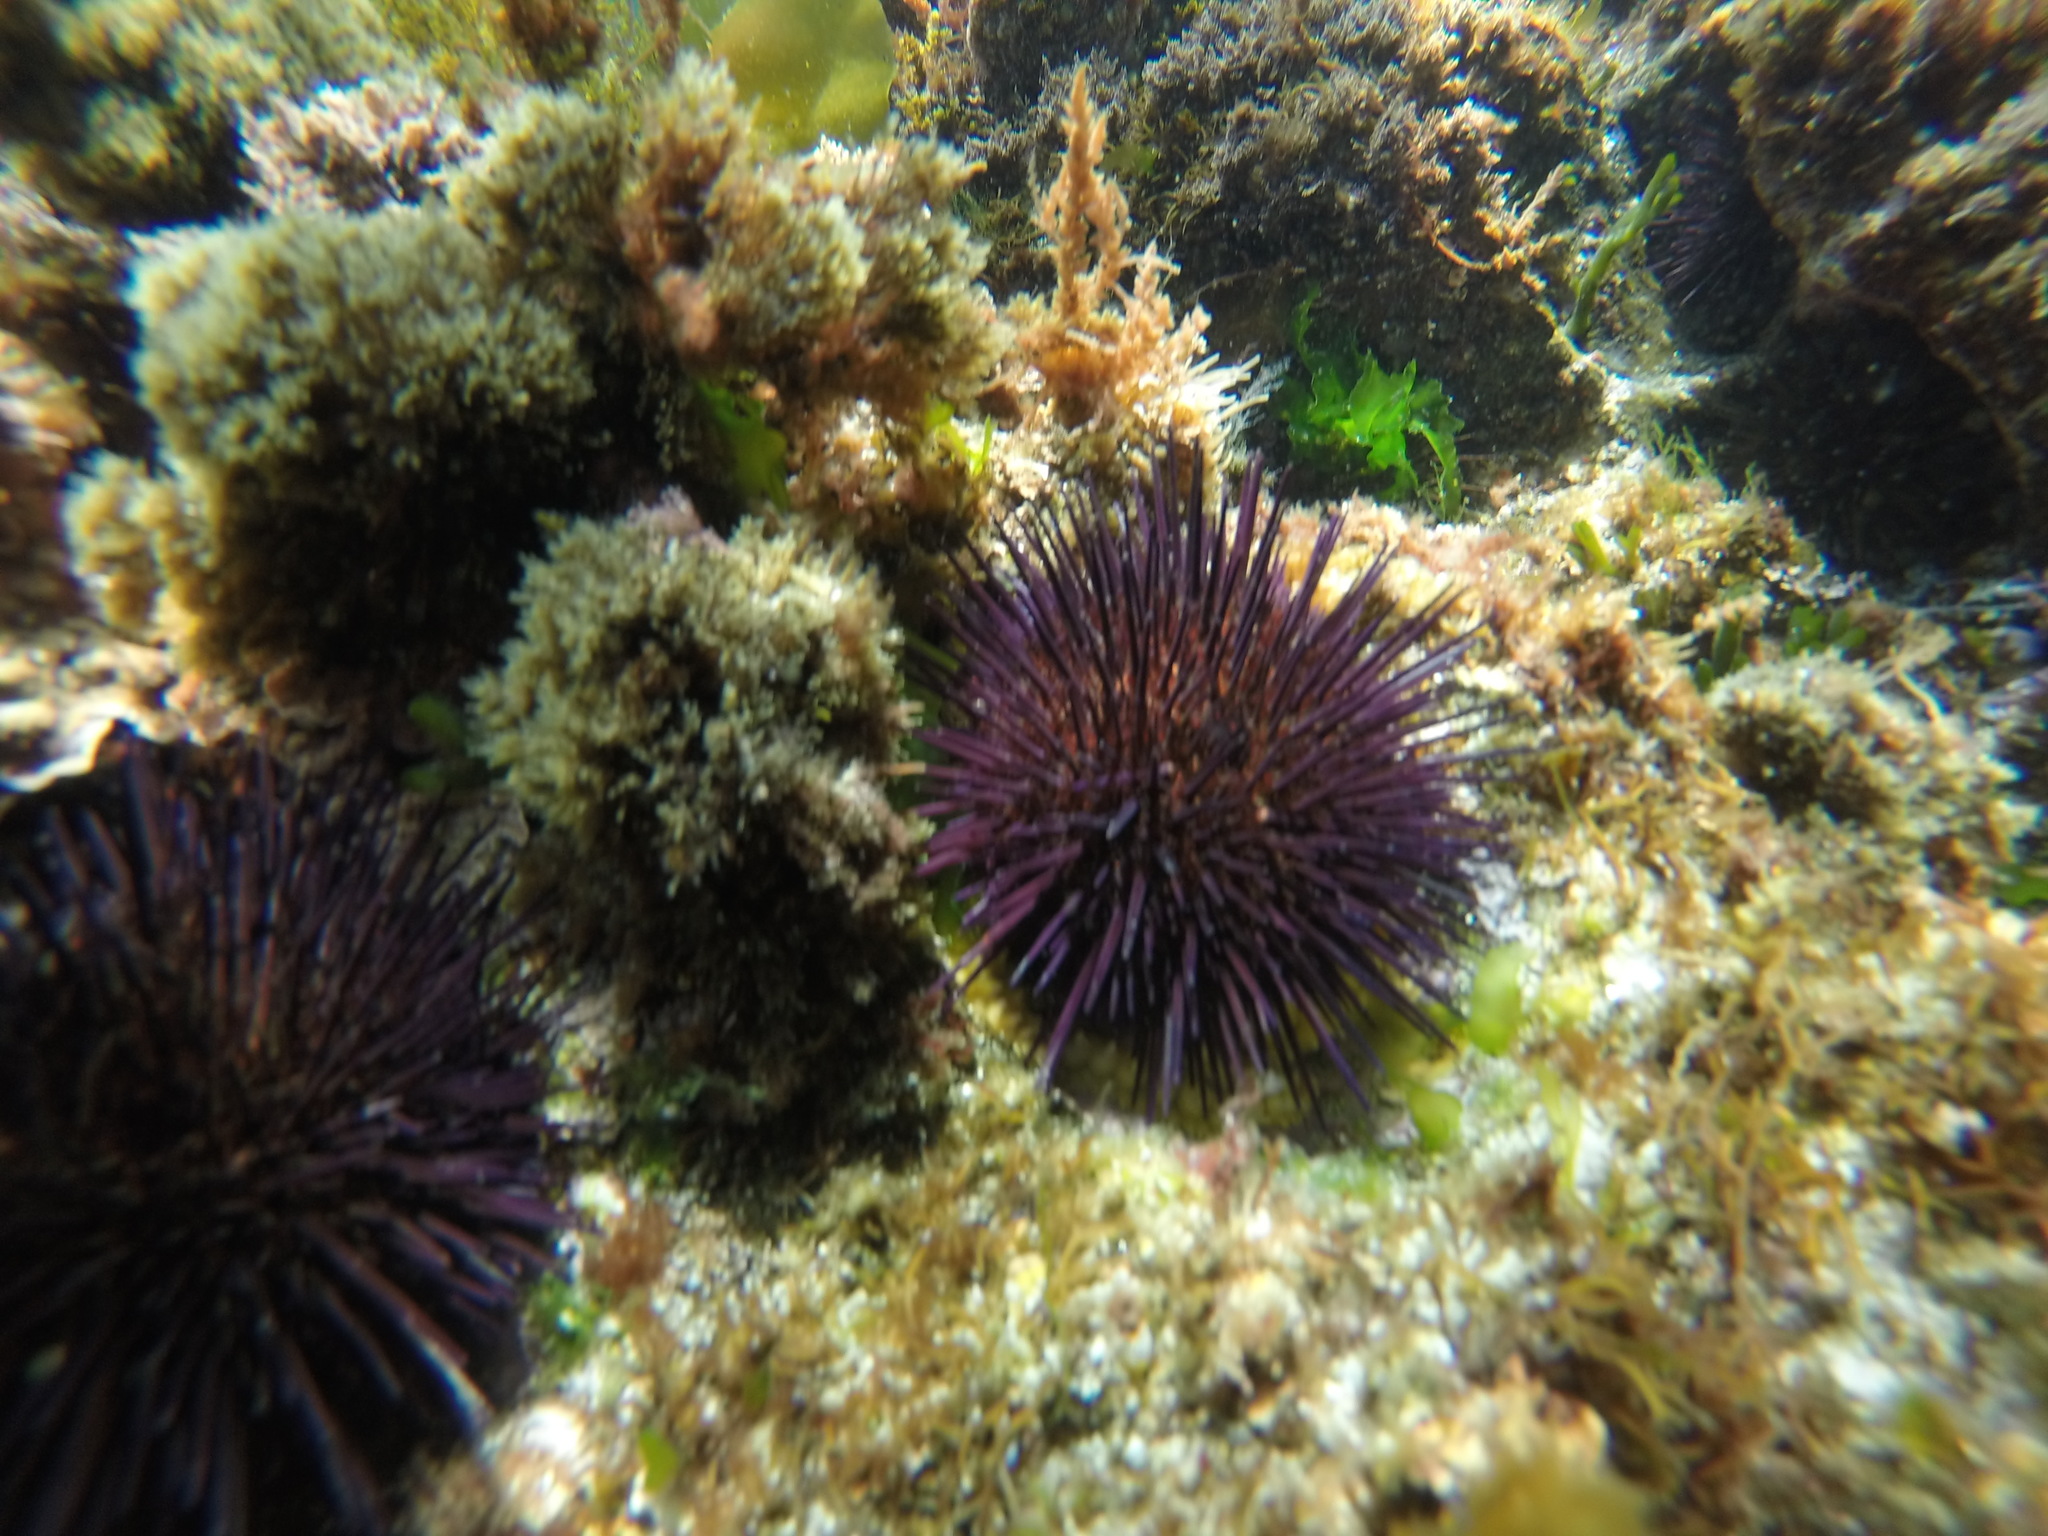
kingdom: Animalia
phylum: Echinodermata
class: Echinoidea
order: Camarodonta
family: Parechinidae
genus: Paracentrotus
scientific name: Paracentrotus lividus
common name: Purple sea urchin
